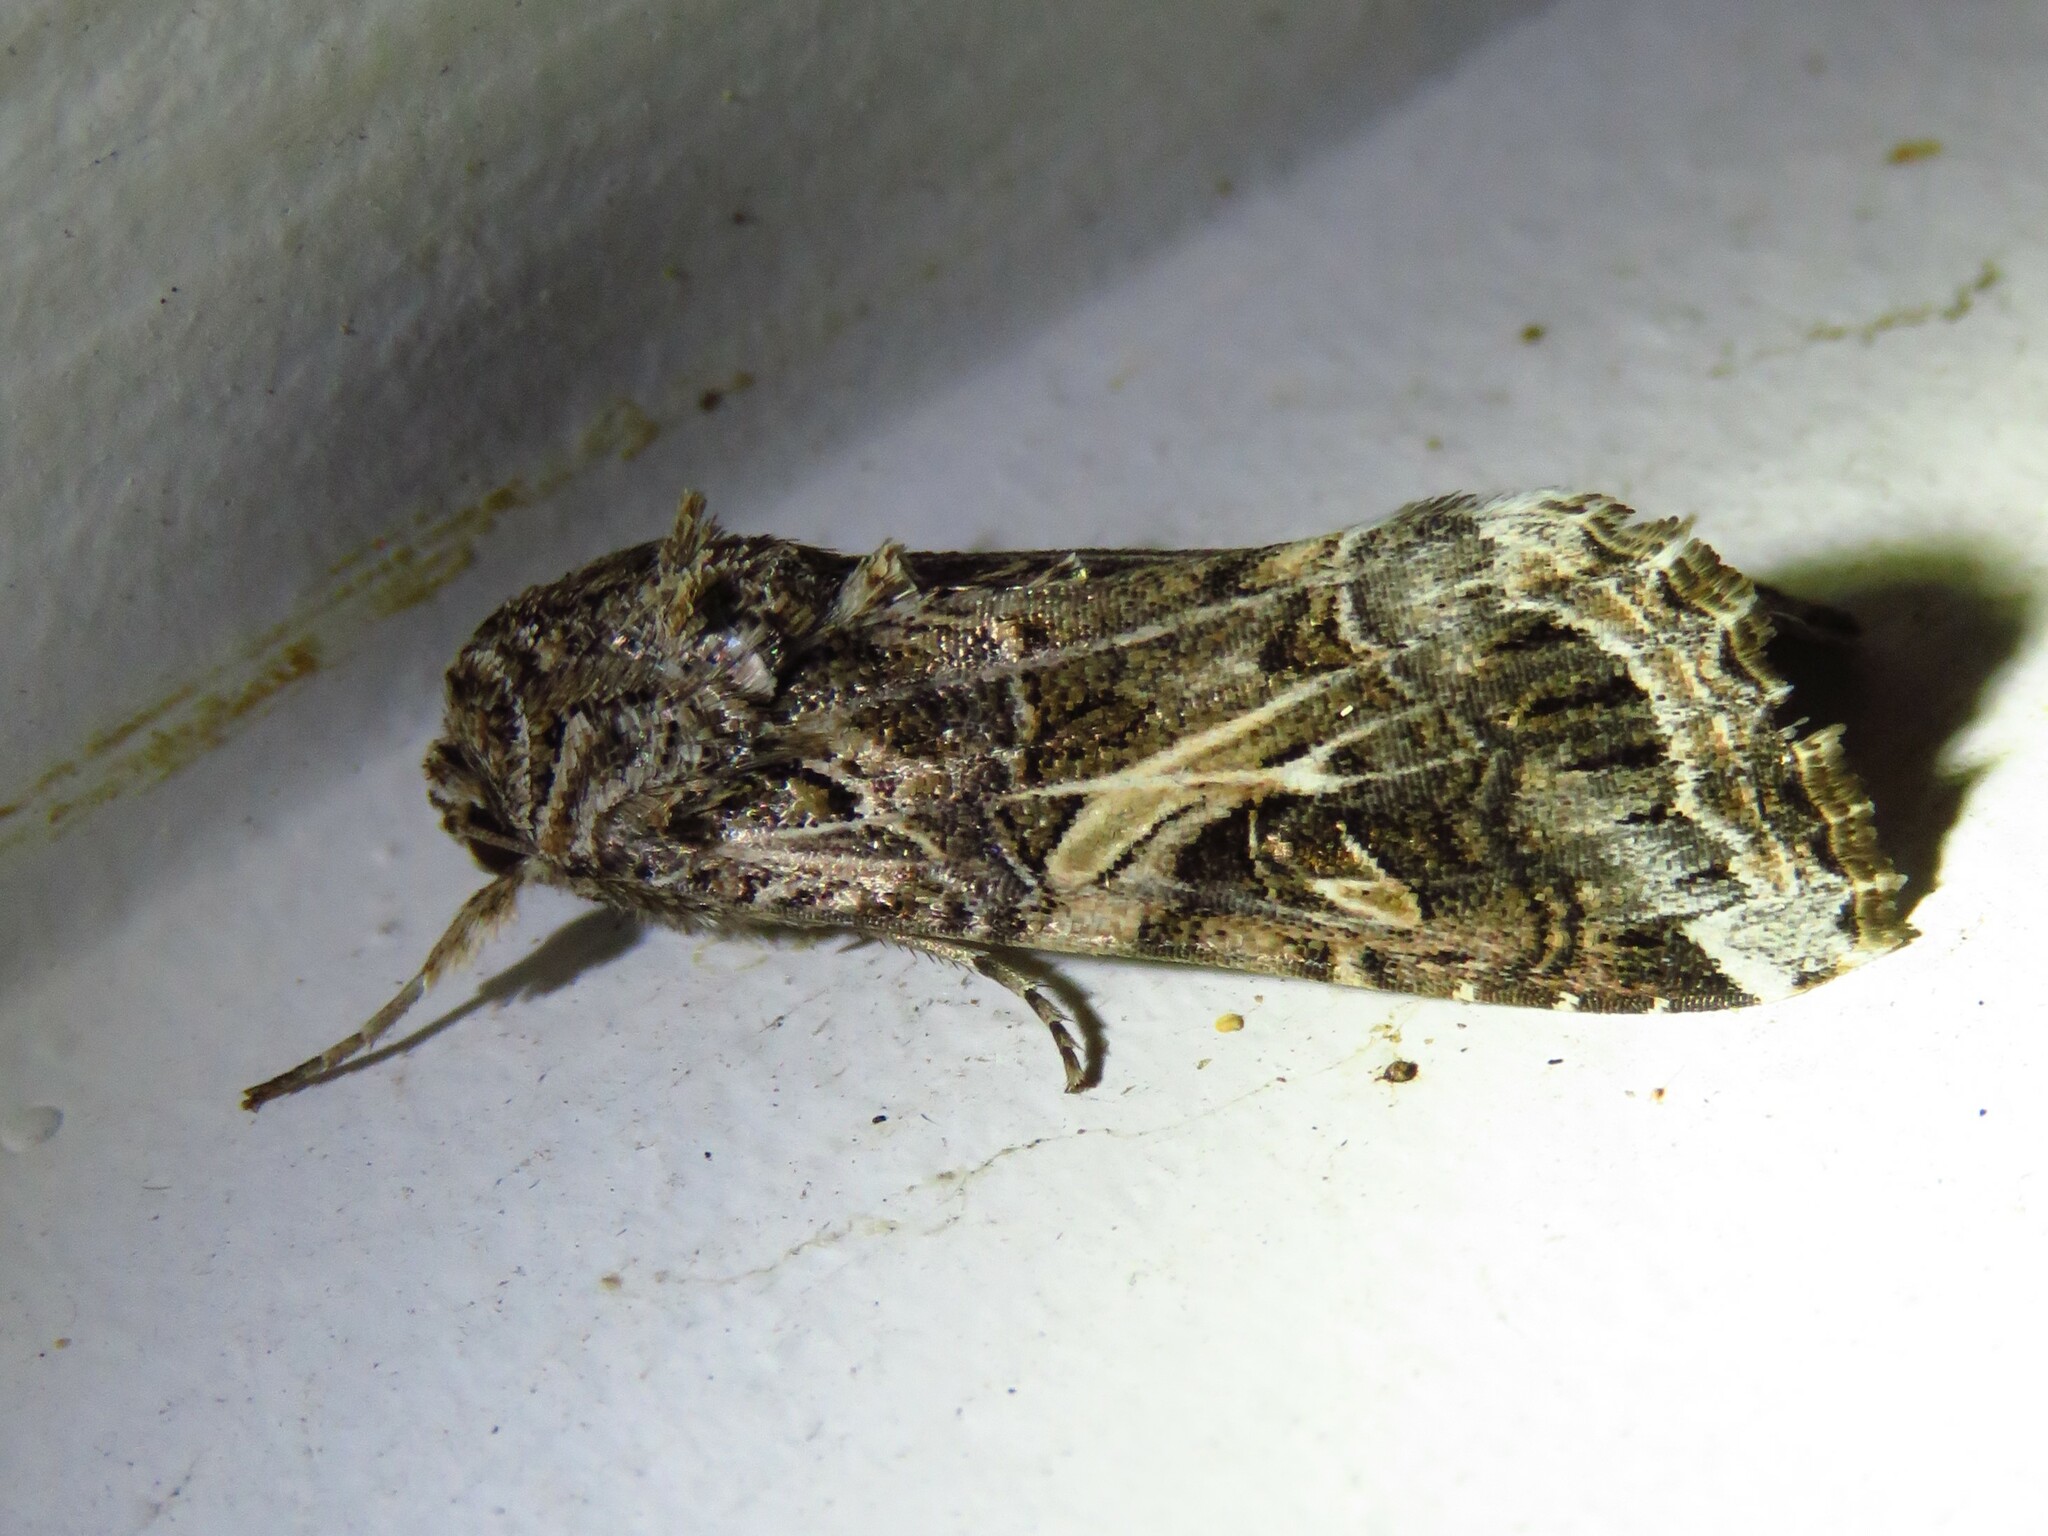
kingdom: Animalia
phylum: Arthropoda
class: Insecta
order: Lepidoptera
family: Noctuidae
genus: Spodoptera
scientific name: Spodoptera ornithogalli
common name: Yellow-striped armyworm
